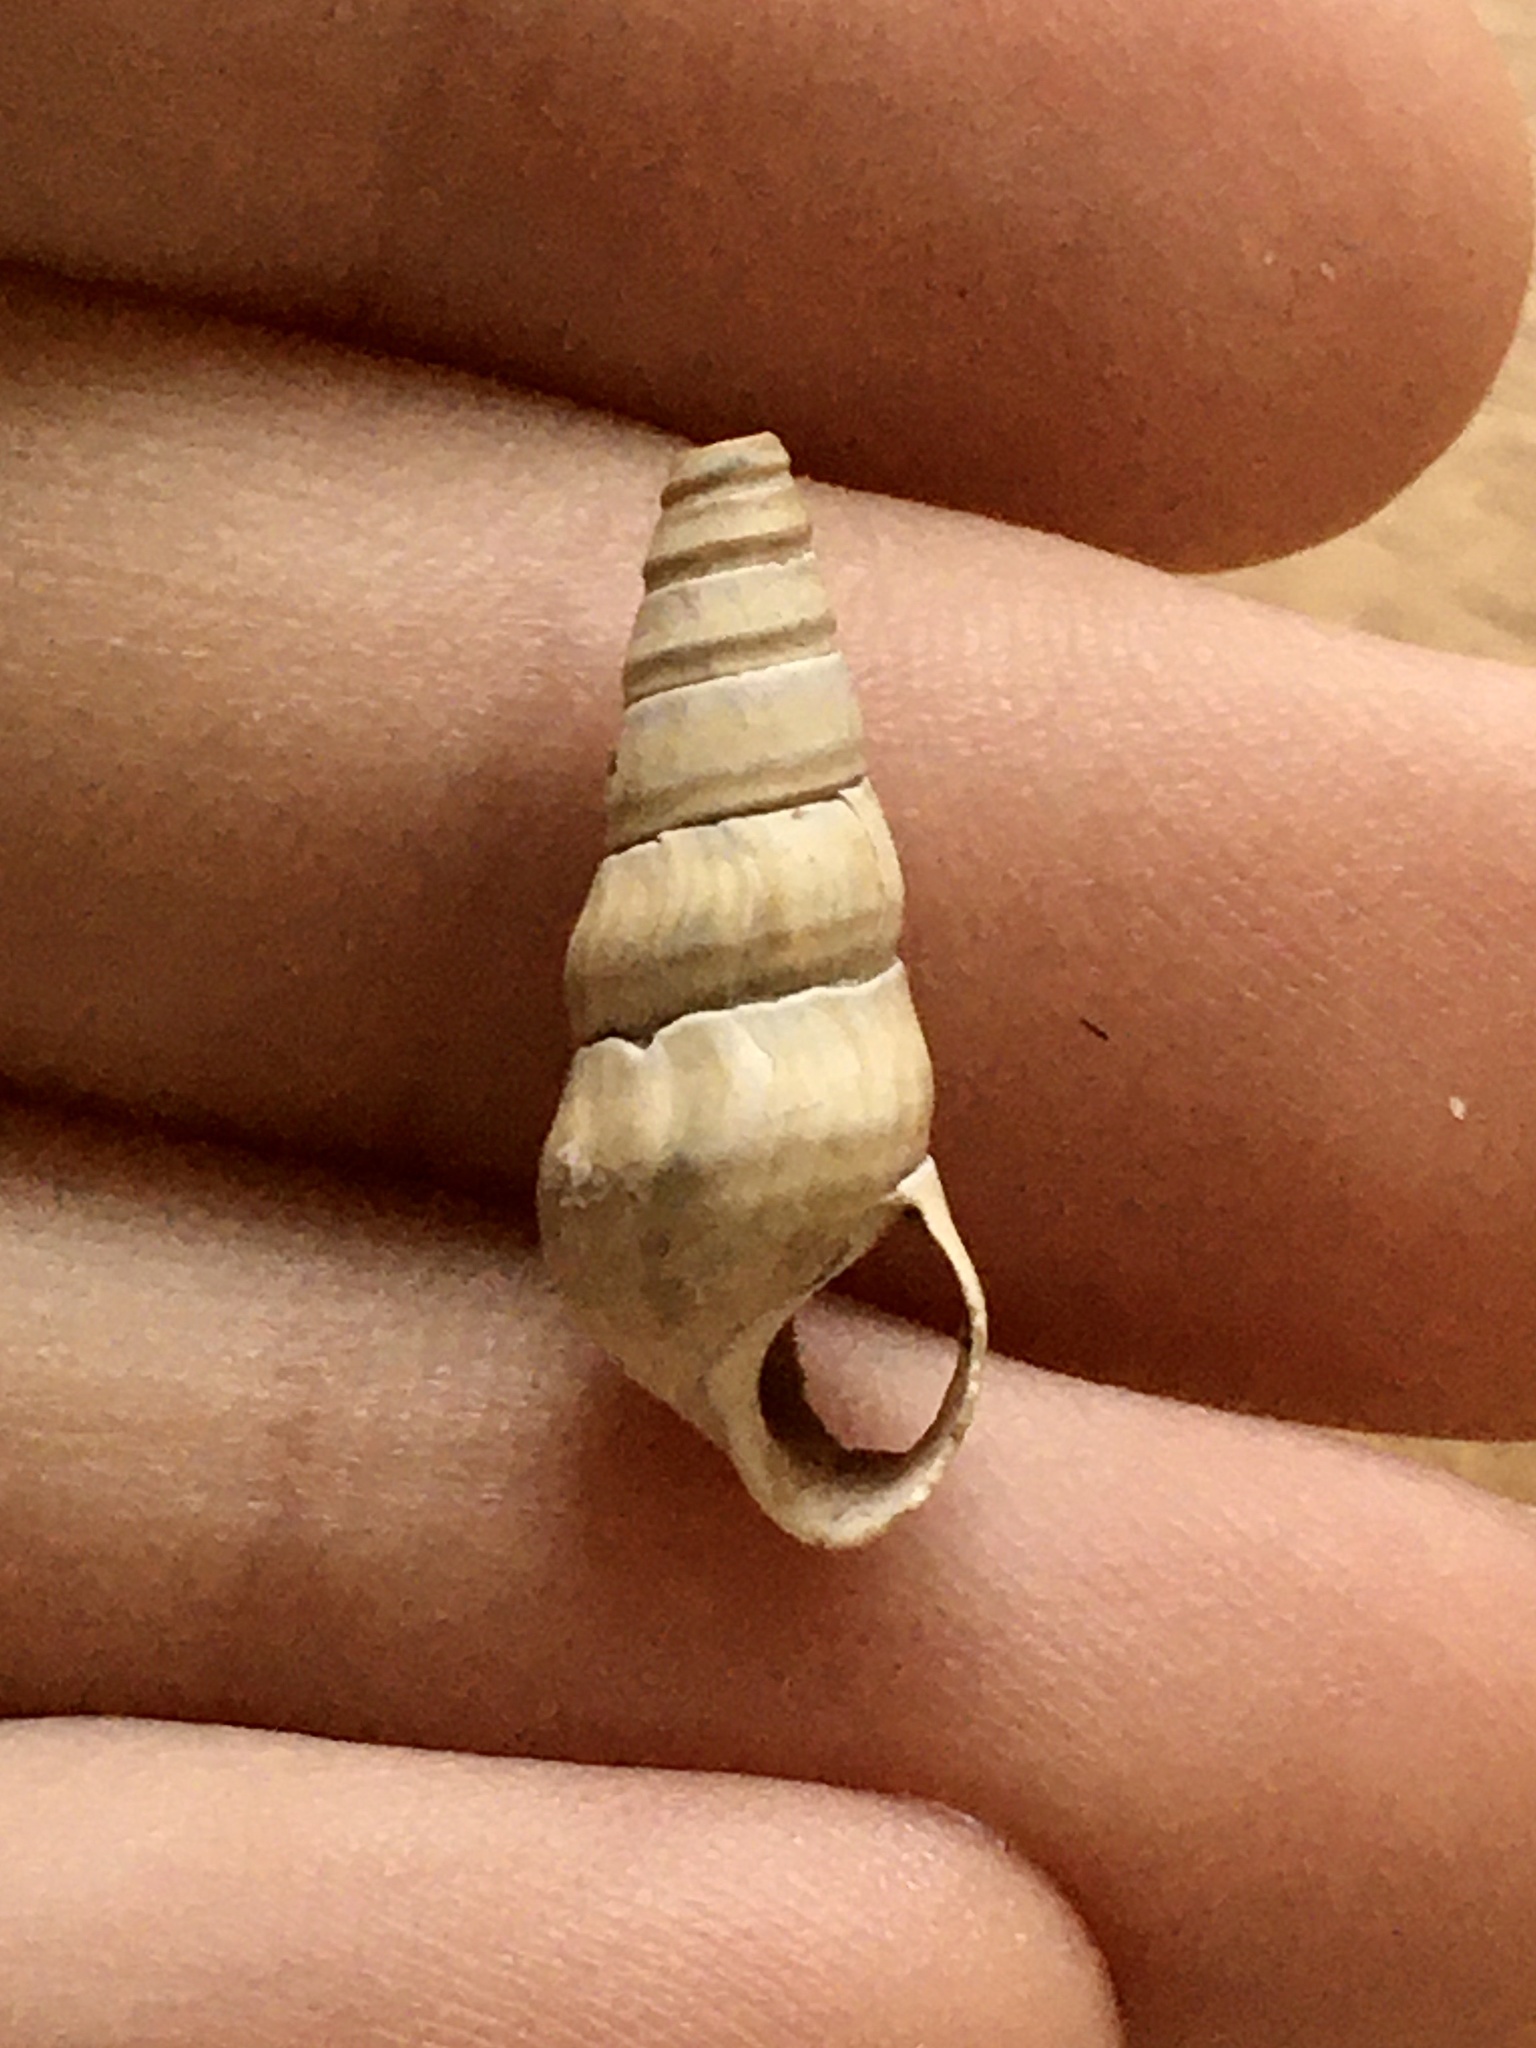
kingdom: Animalia
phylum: Mollusca
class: Gastropoda
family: Pleuroceridae
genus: Pleurocera
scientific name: Pleurocera acuta
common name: Sharp hornsnail
